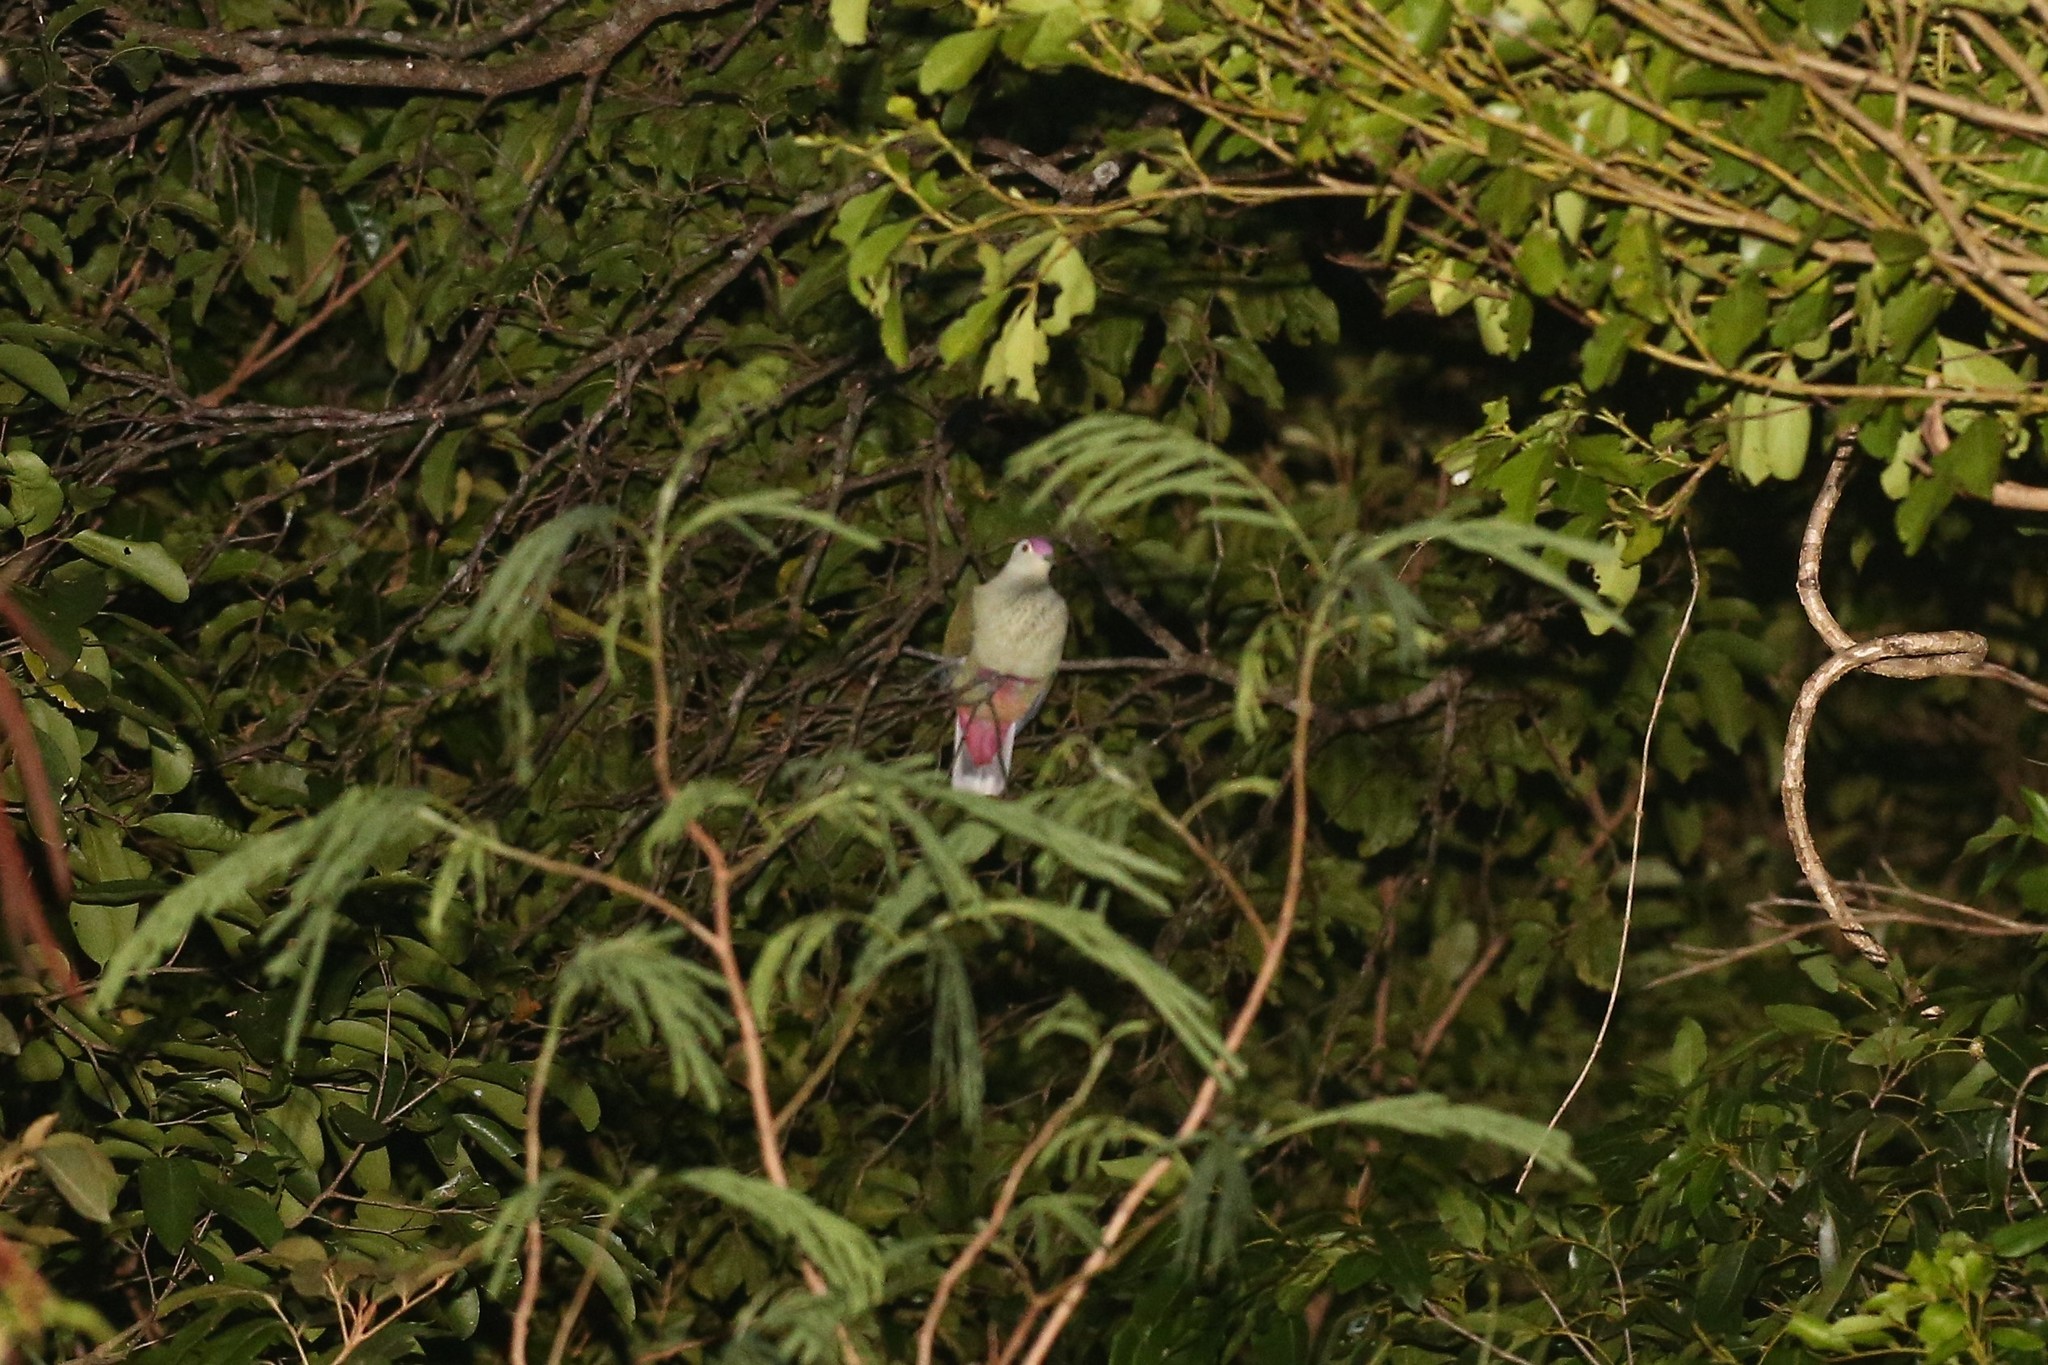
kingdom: Animalia
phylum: Chordata
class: Aves
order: Columbiformes
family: Columbidae
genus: Ptilinopus
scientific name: Ptilinopus greyi
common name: Red-bellied fruit-dove
